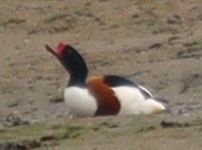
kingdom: Animalia
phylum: Chordata
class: Aves
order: Anseriformes
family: Anatidae
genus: Tadorna
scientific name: Tadorna tadorna
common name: Common shelduck
